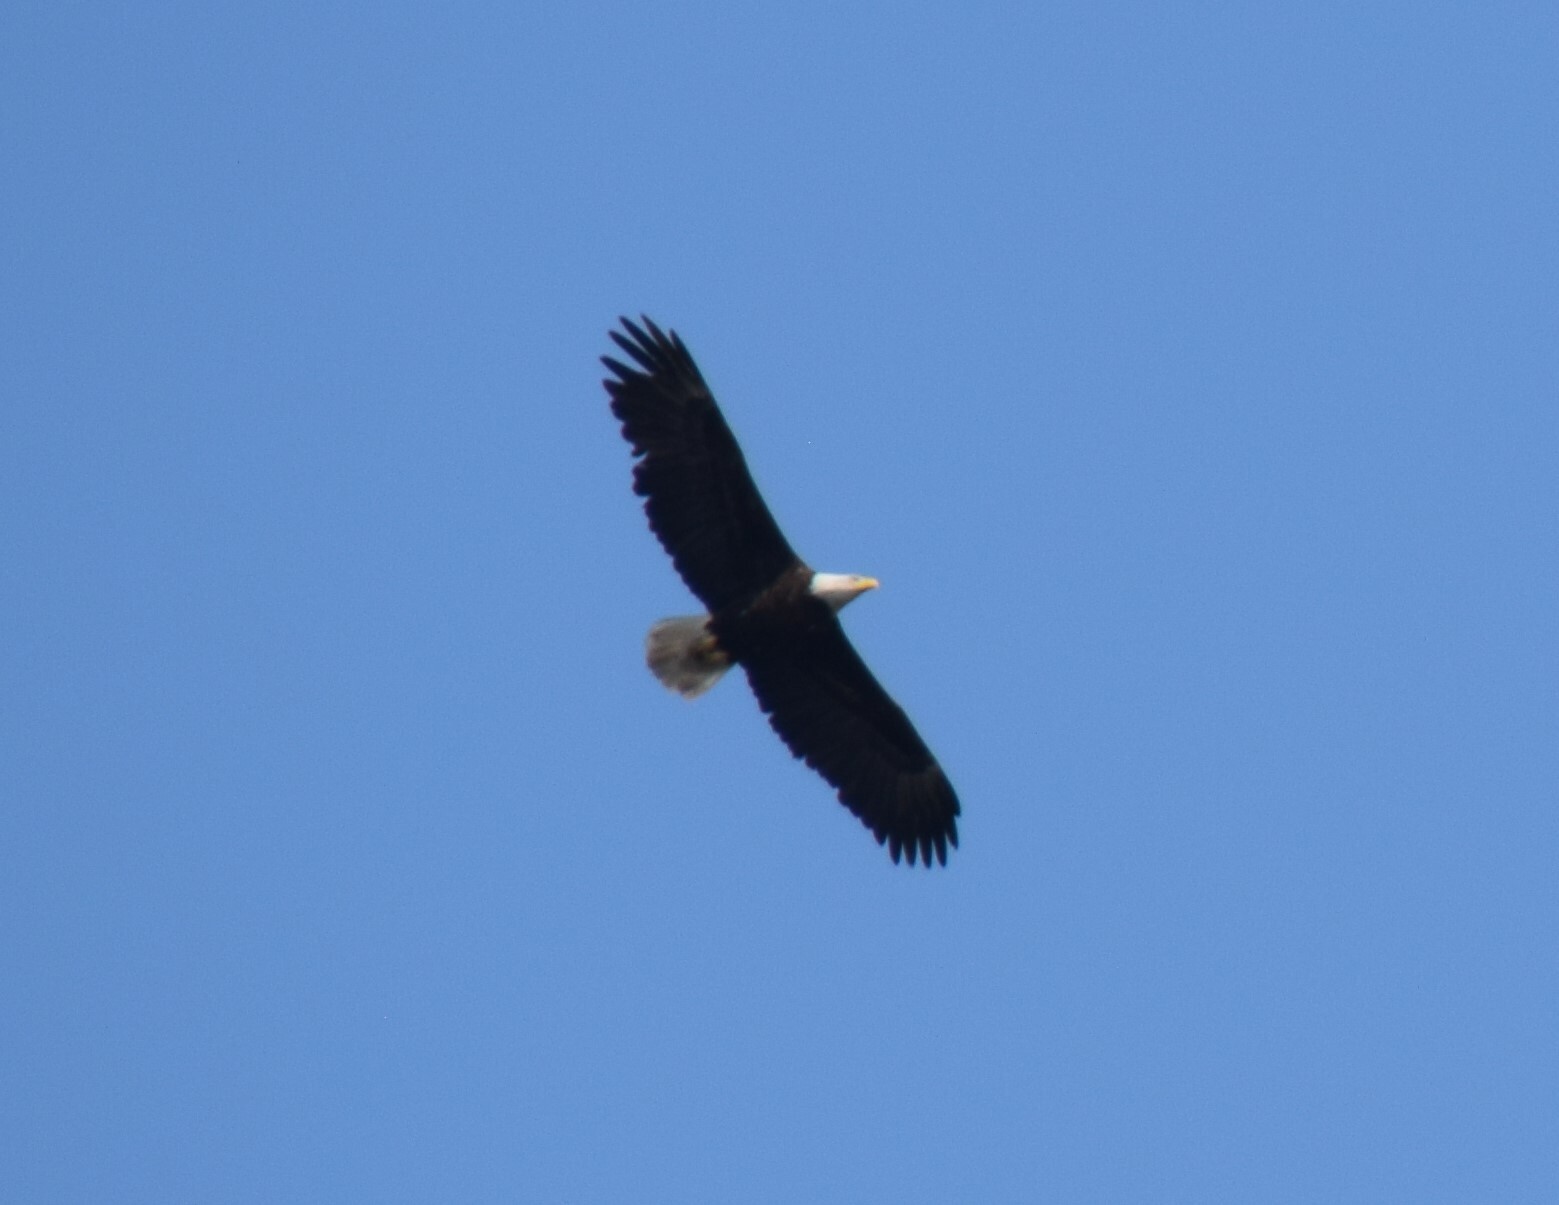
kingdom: Animalia
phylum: Chordata
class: Aves
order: Accipitriformes
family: Accipitridae
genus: Haliaeetus
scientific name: Haliaeetus leucocephalus
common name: Bald eagle
